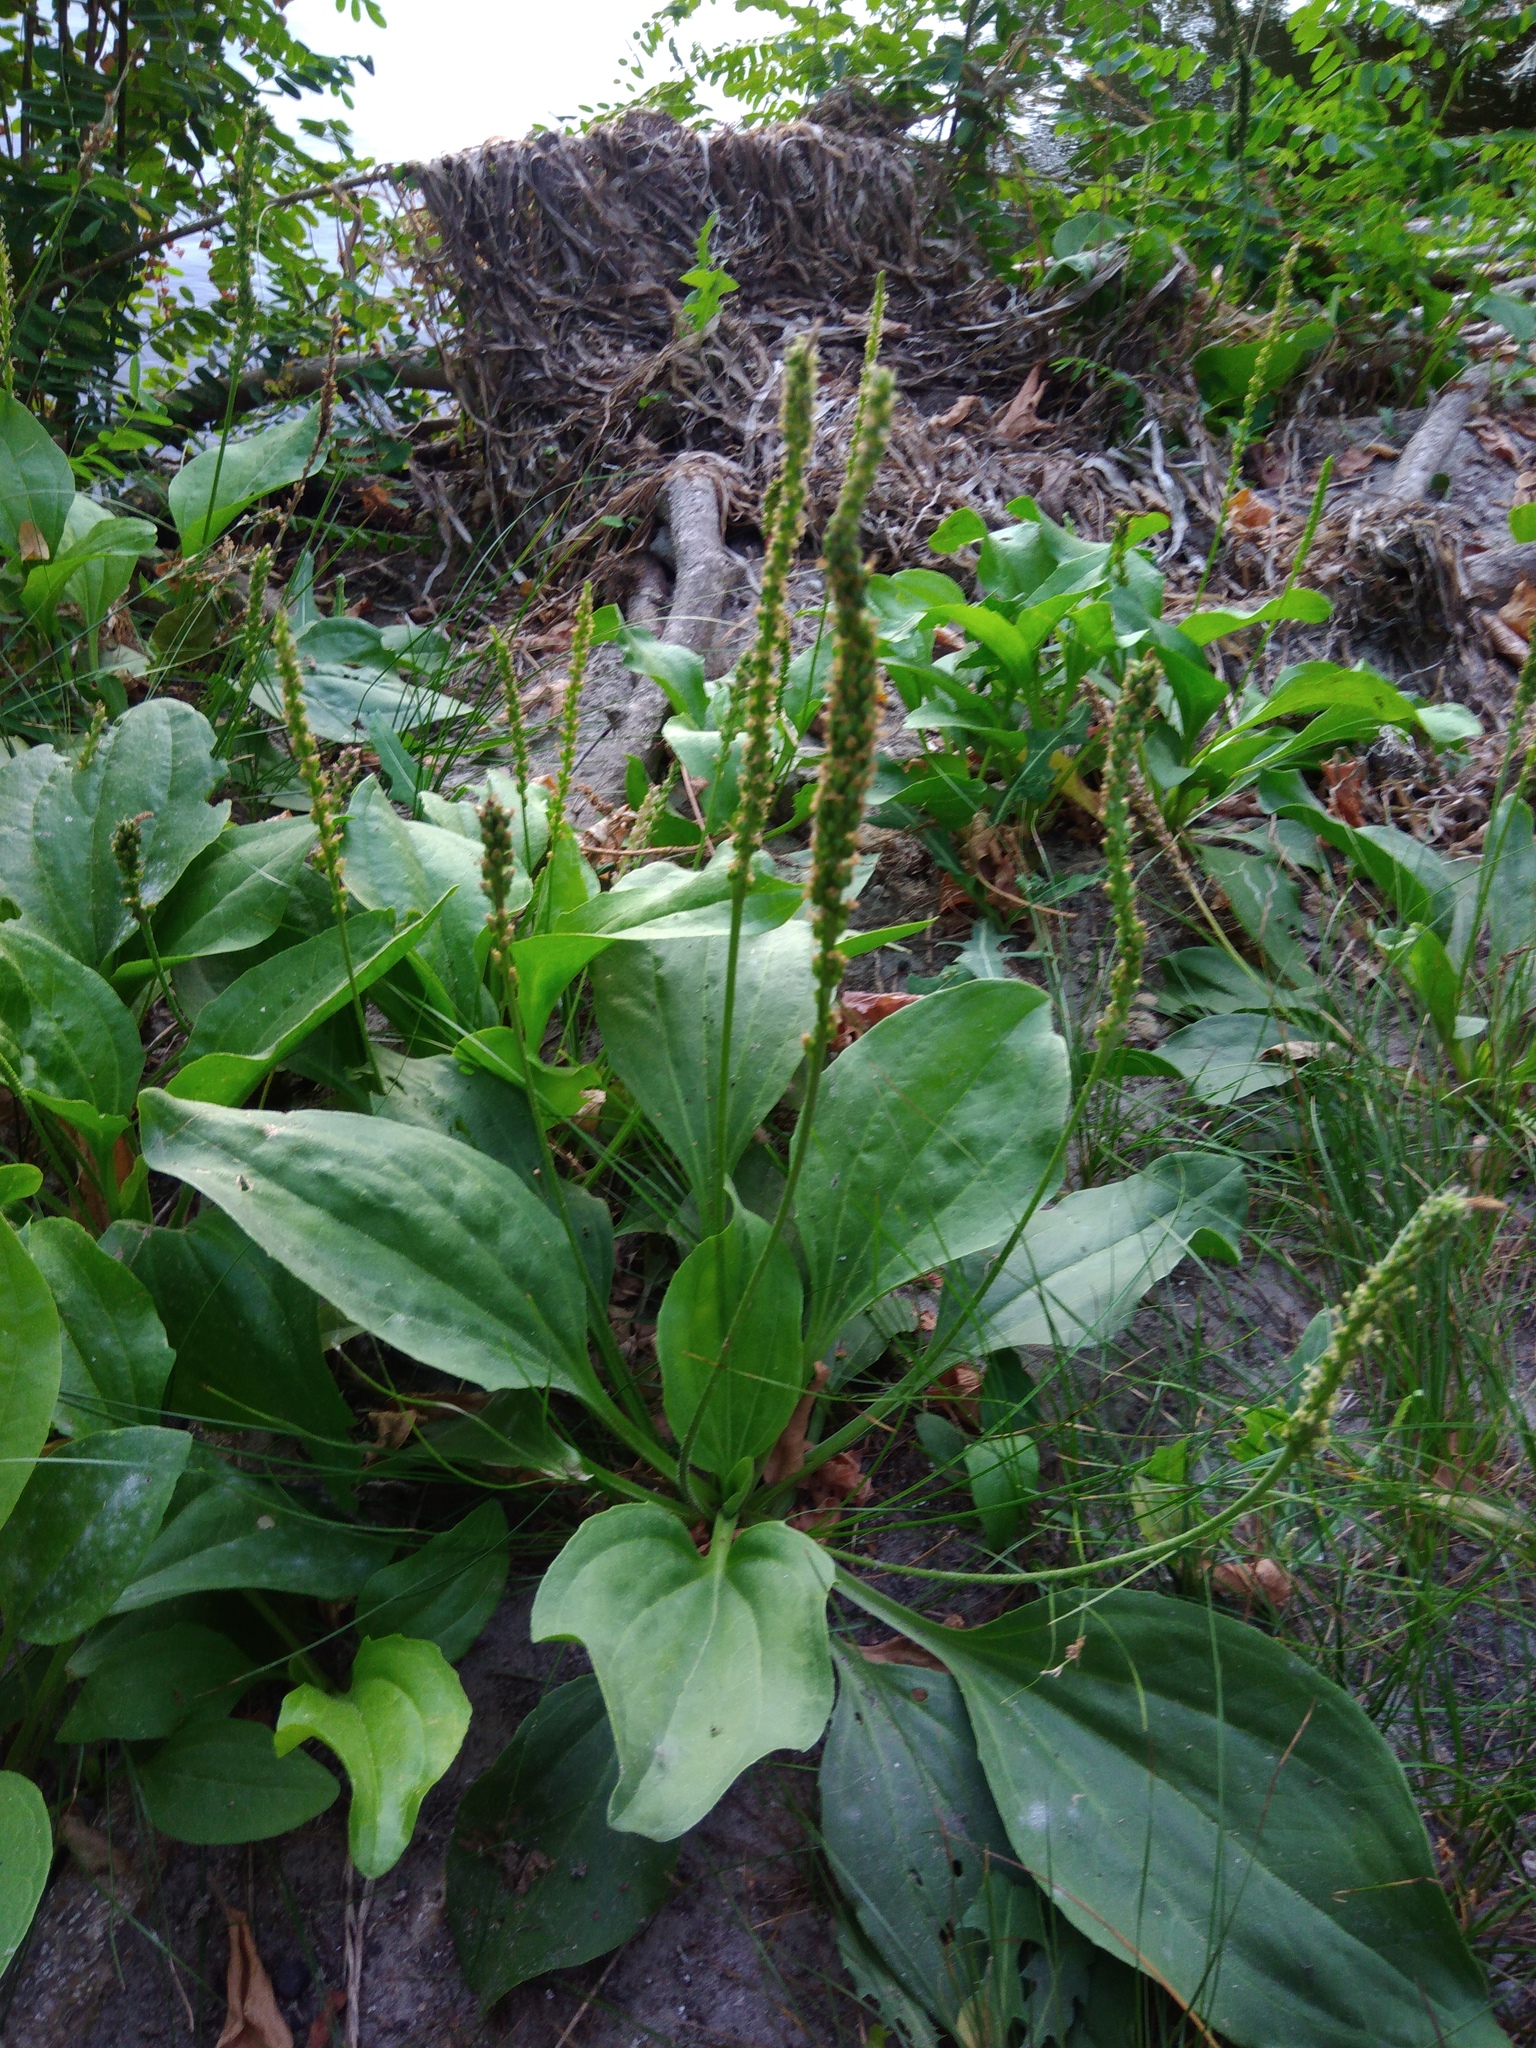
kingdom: Plantae
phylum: Tracheophyta
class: Magnoliopsida
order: Lamiales
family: Plantaginaceae
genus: Plantago
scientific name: Plantago uliginosa
